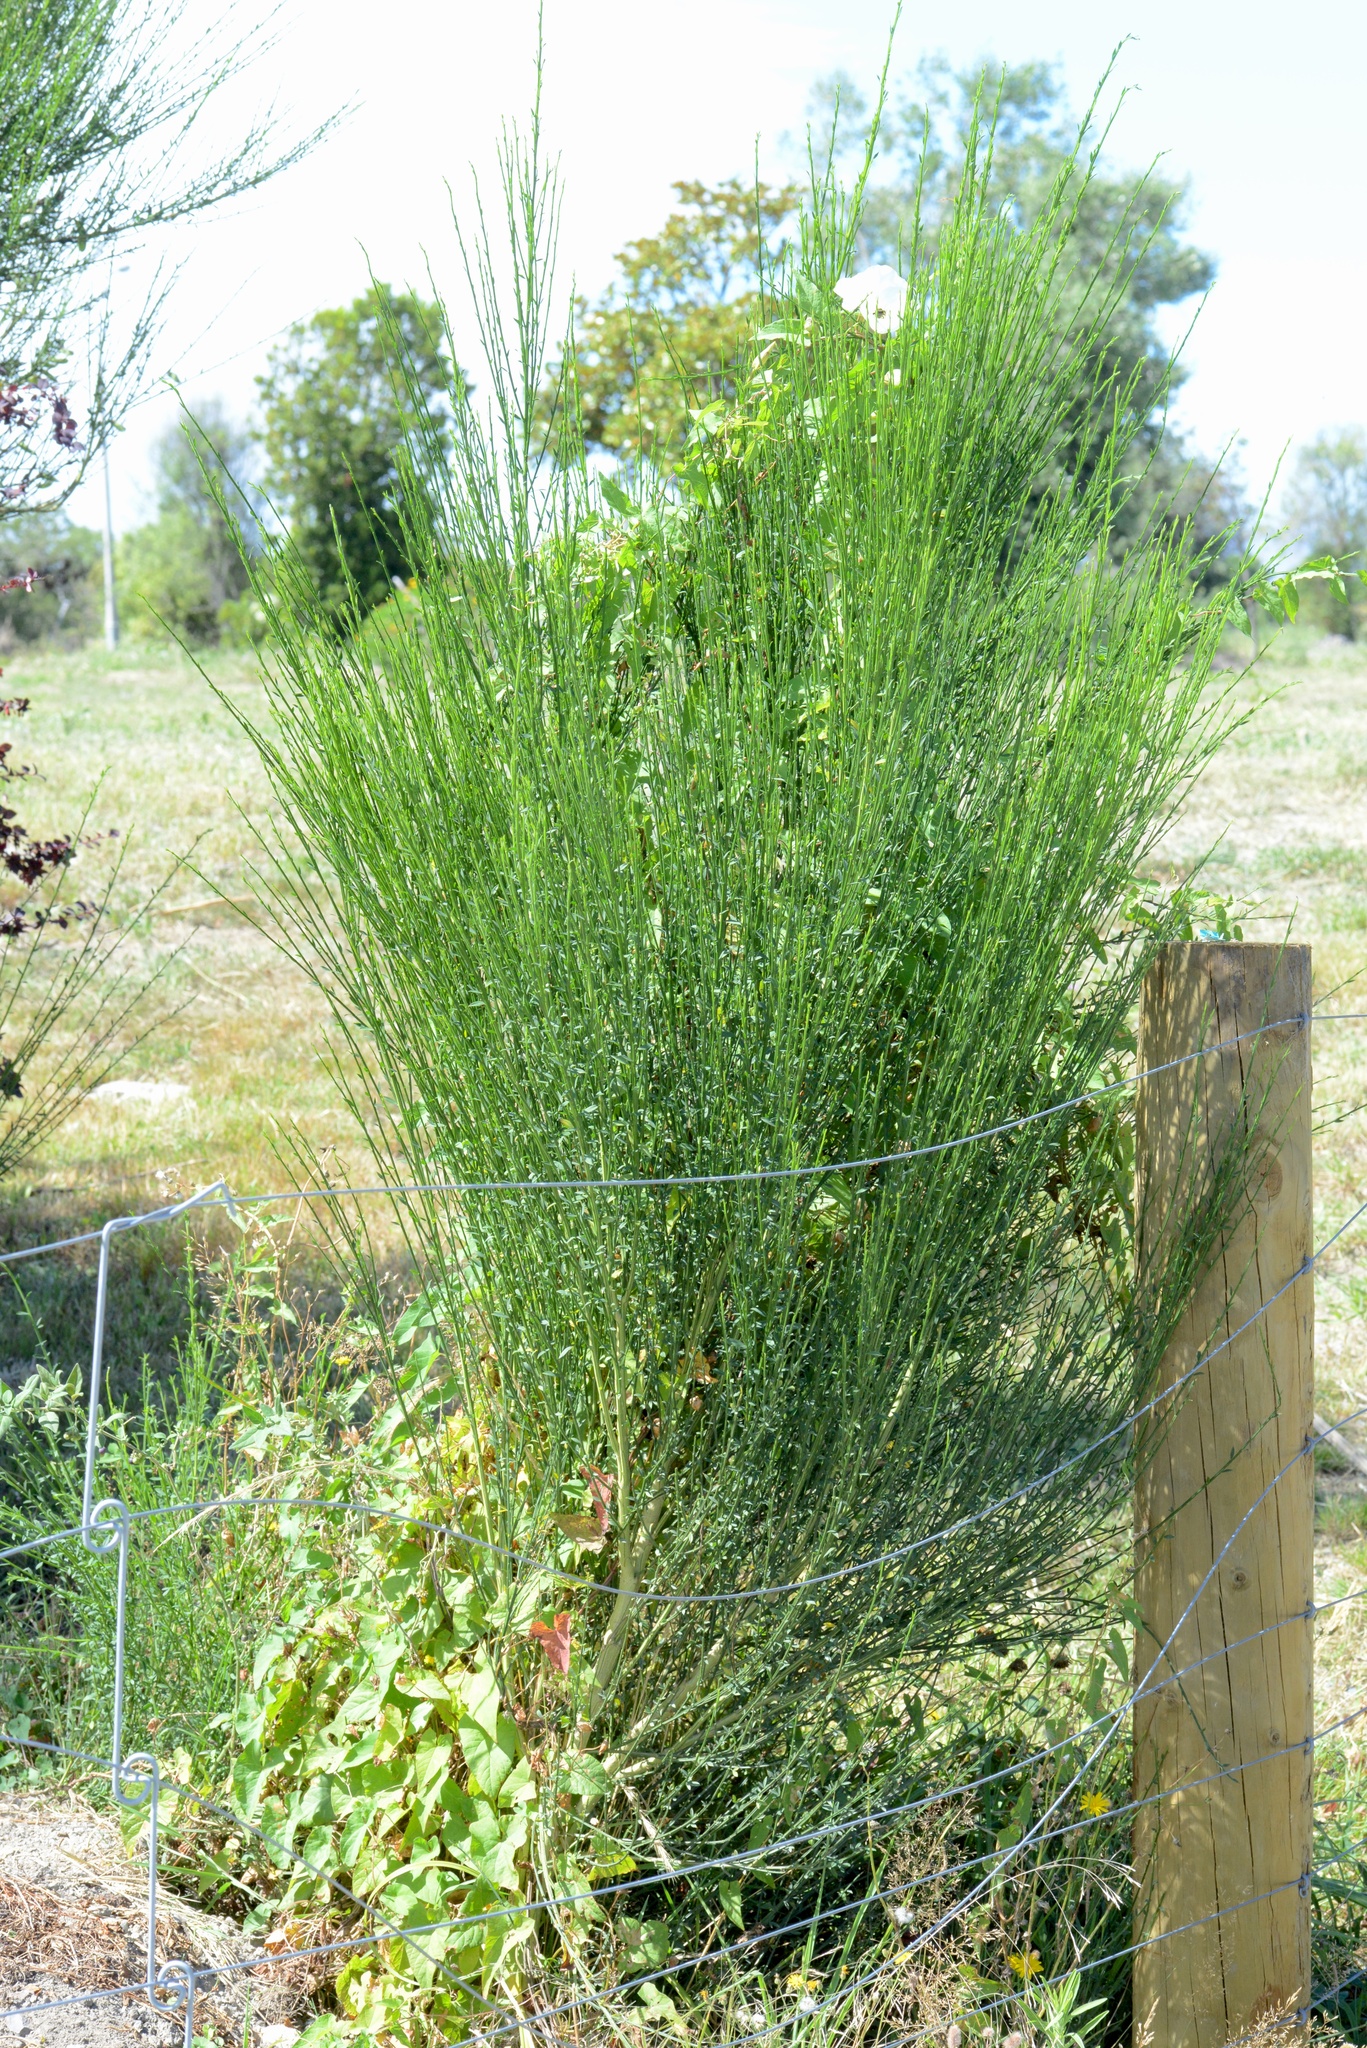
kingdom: Plantae
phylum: Tracheophyta
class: Magnoliopsida
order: Fabales
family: Fabaceae
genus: Cytisus
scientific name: Cytisus scoparius
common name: Scotch broom
